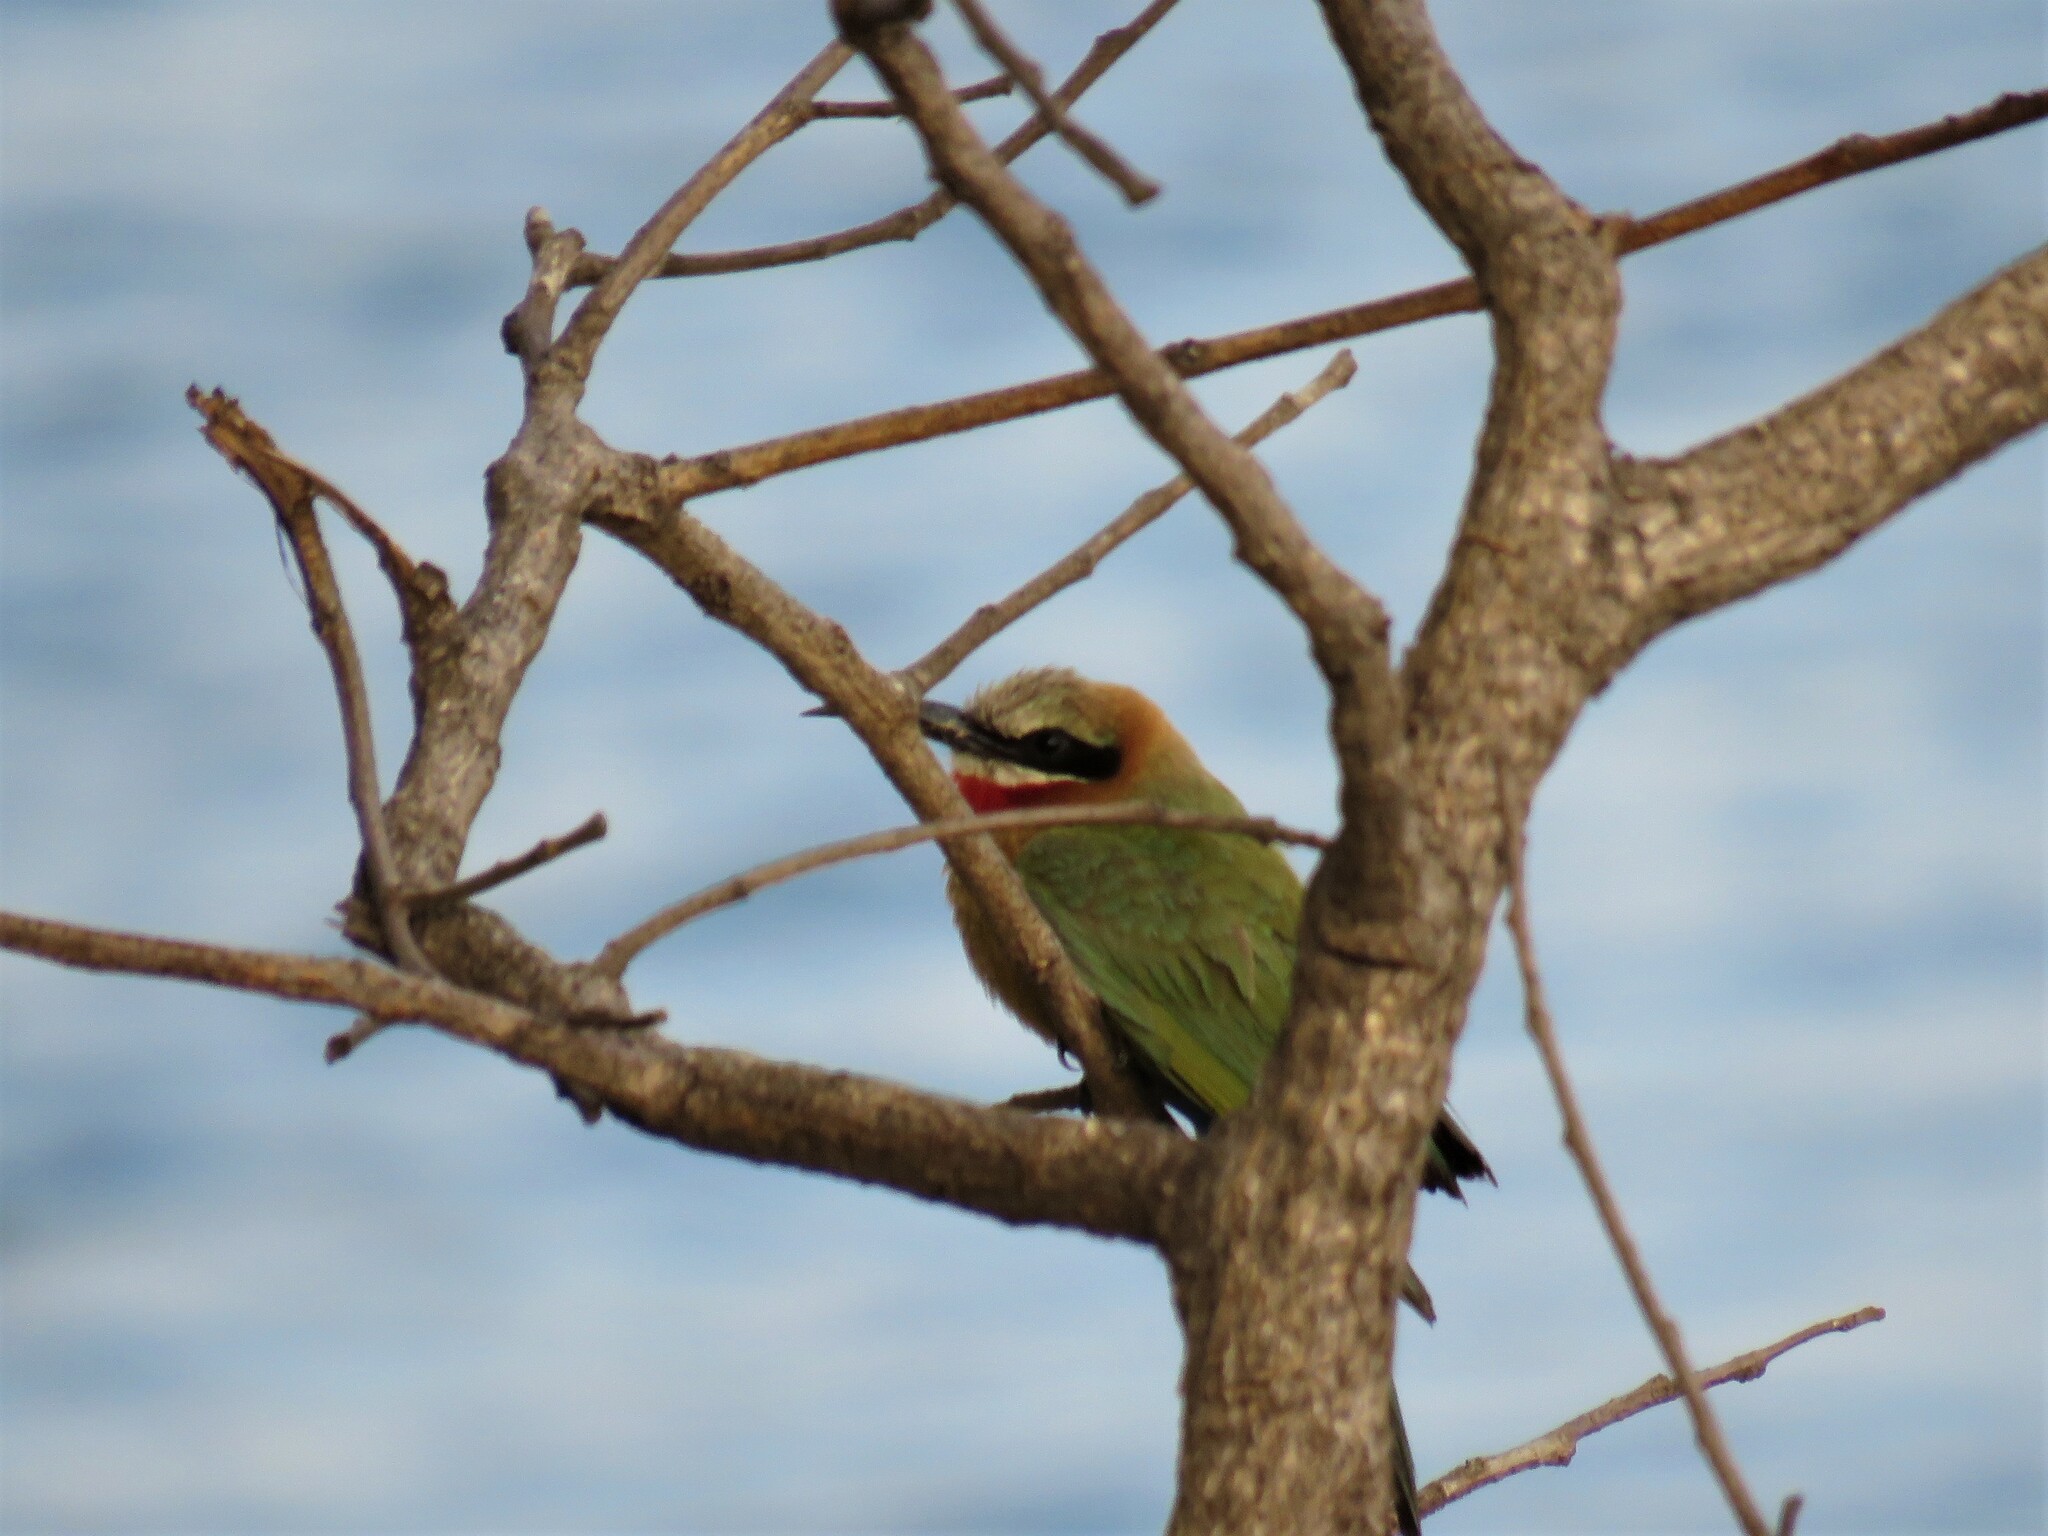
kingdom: Animalia
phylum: Chordata
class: Aves
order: Coraciiformes
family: Meropidae
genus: Merops
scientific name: Merops bullockoides
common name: White-fronted bee-eater
